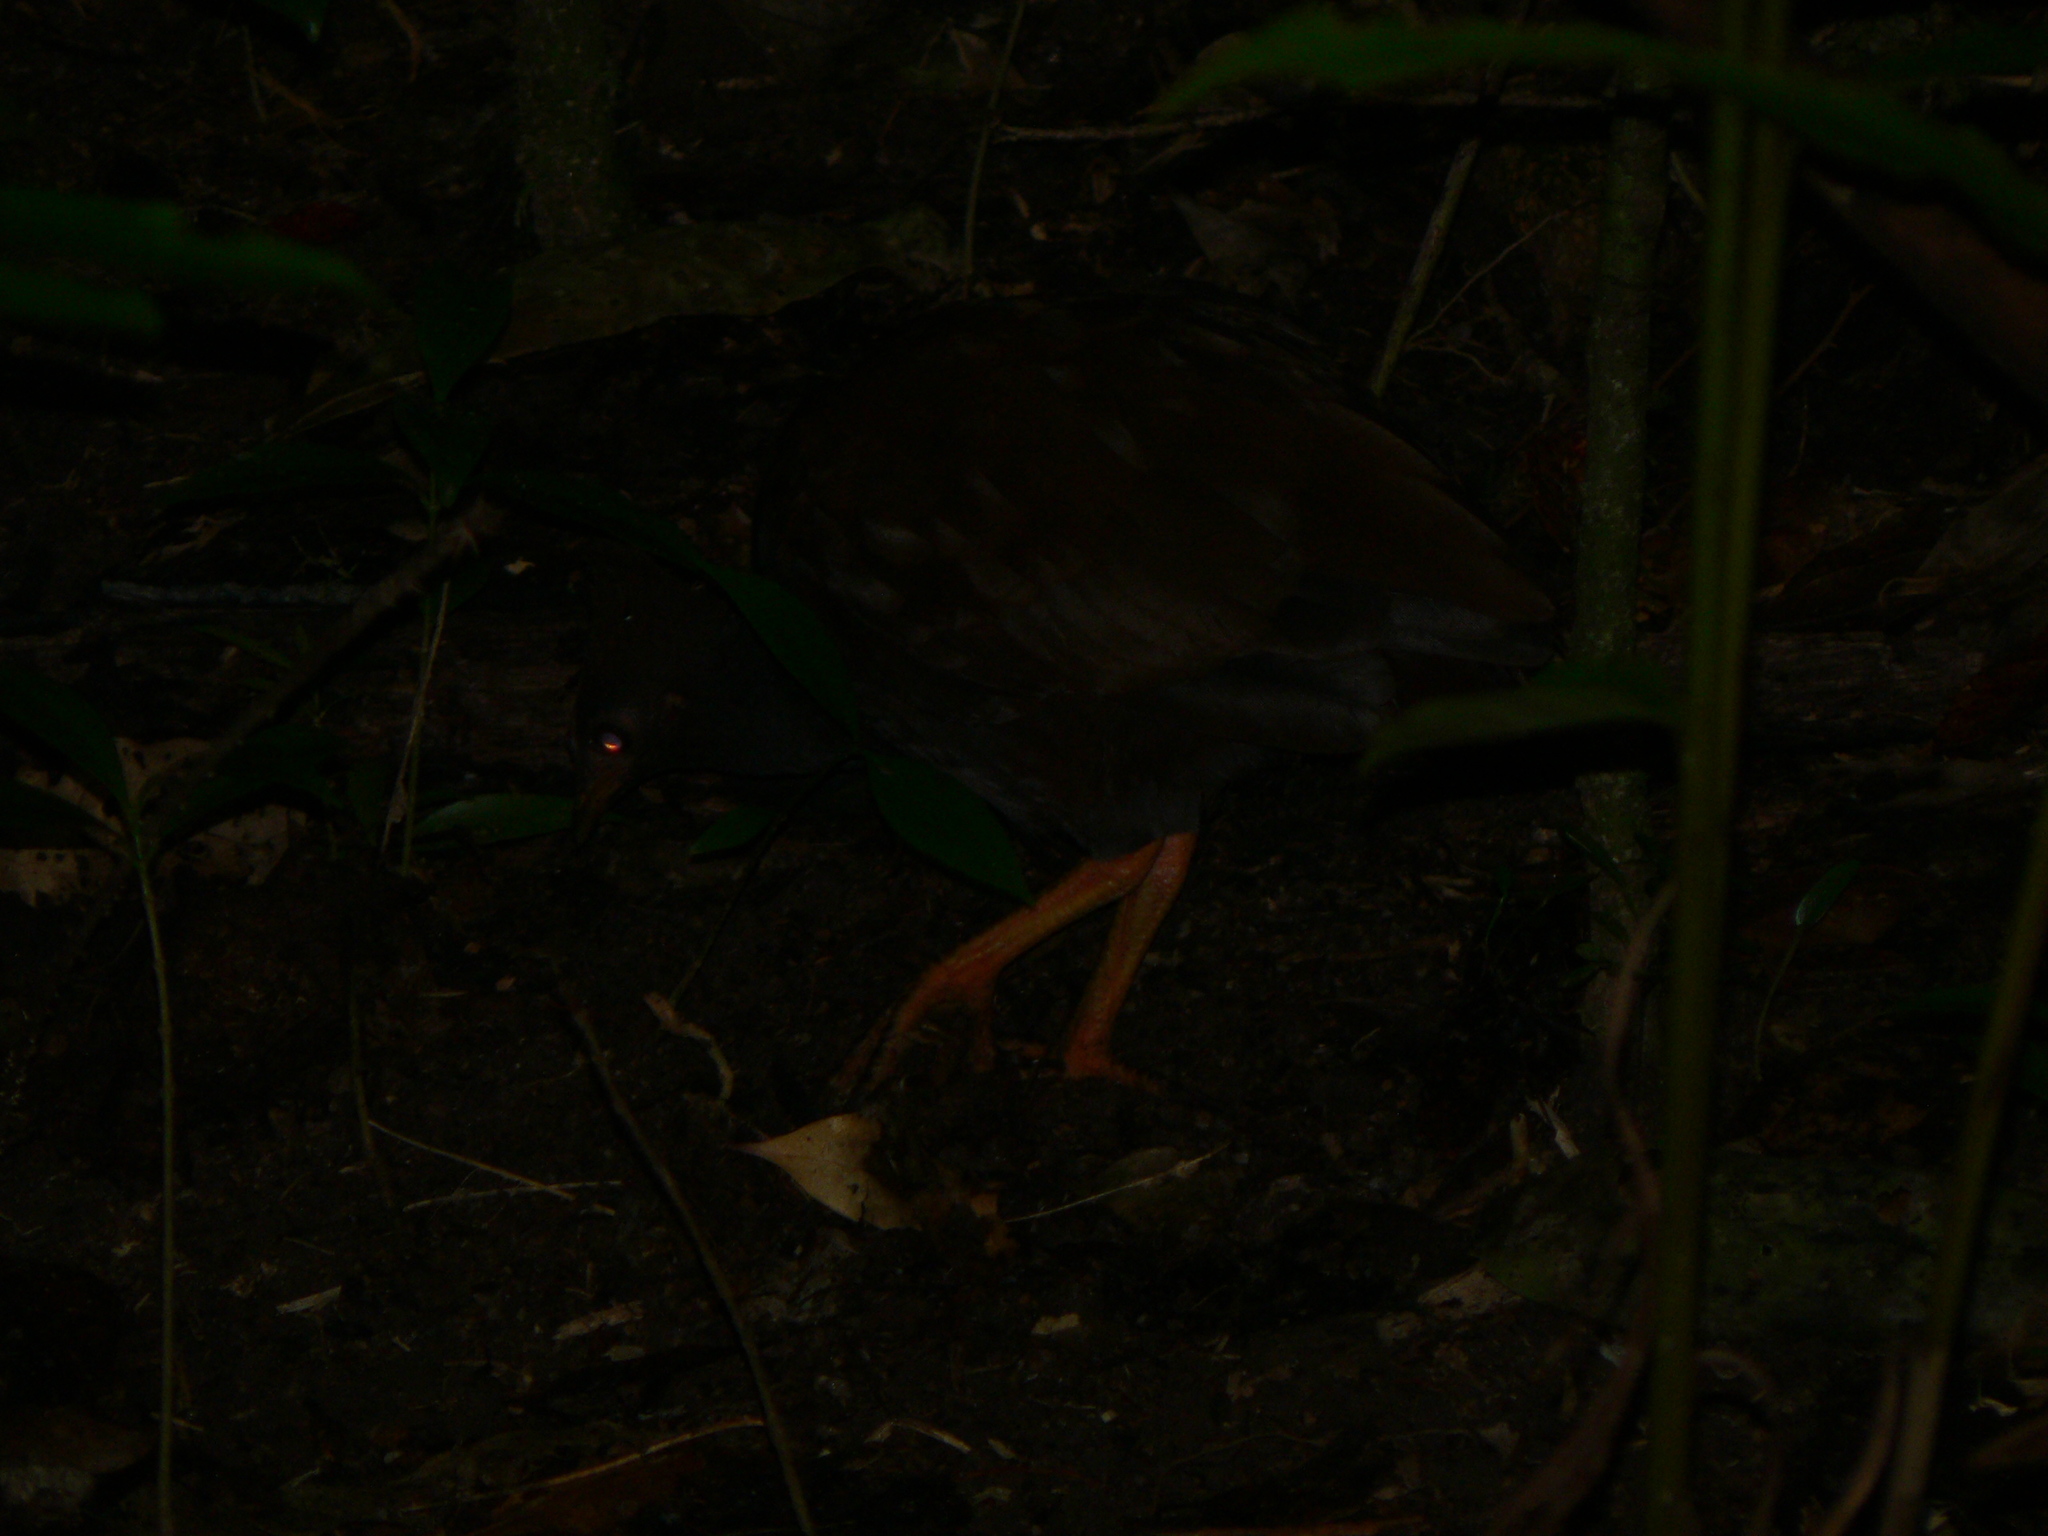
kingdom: Animalia
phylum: Chordata
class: Aves
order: Galliformes
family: Megapodiidae
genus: Megapodius
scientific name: Megapodius reinwardt
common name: Orange-footed scrubfowl
